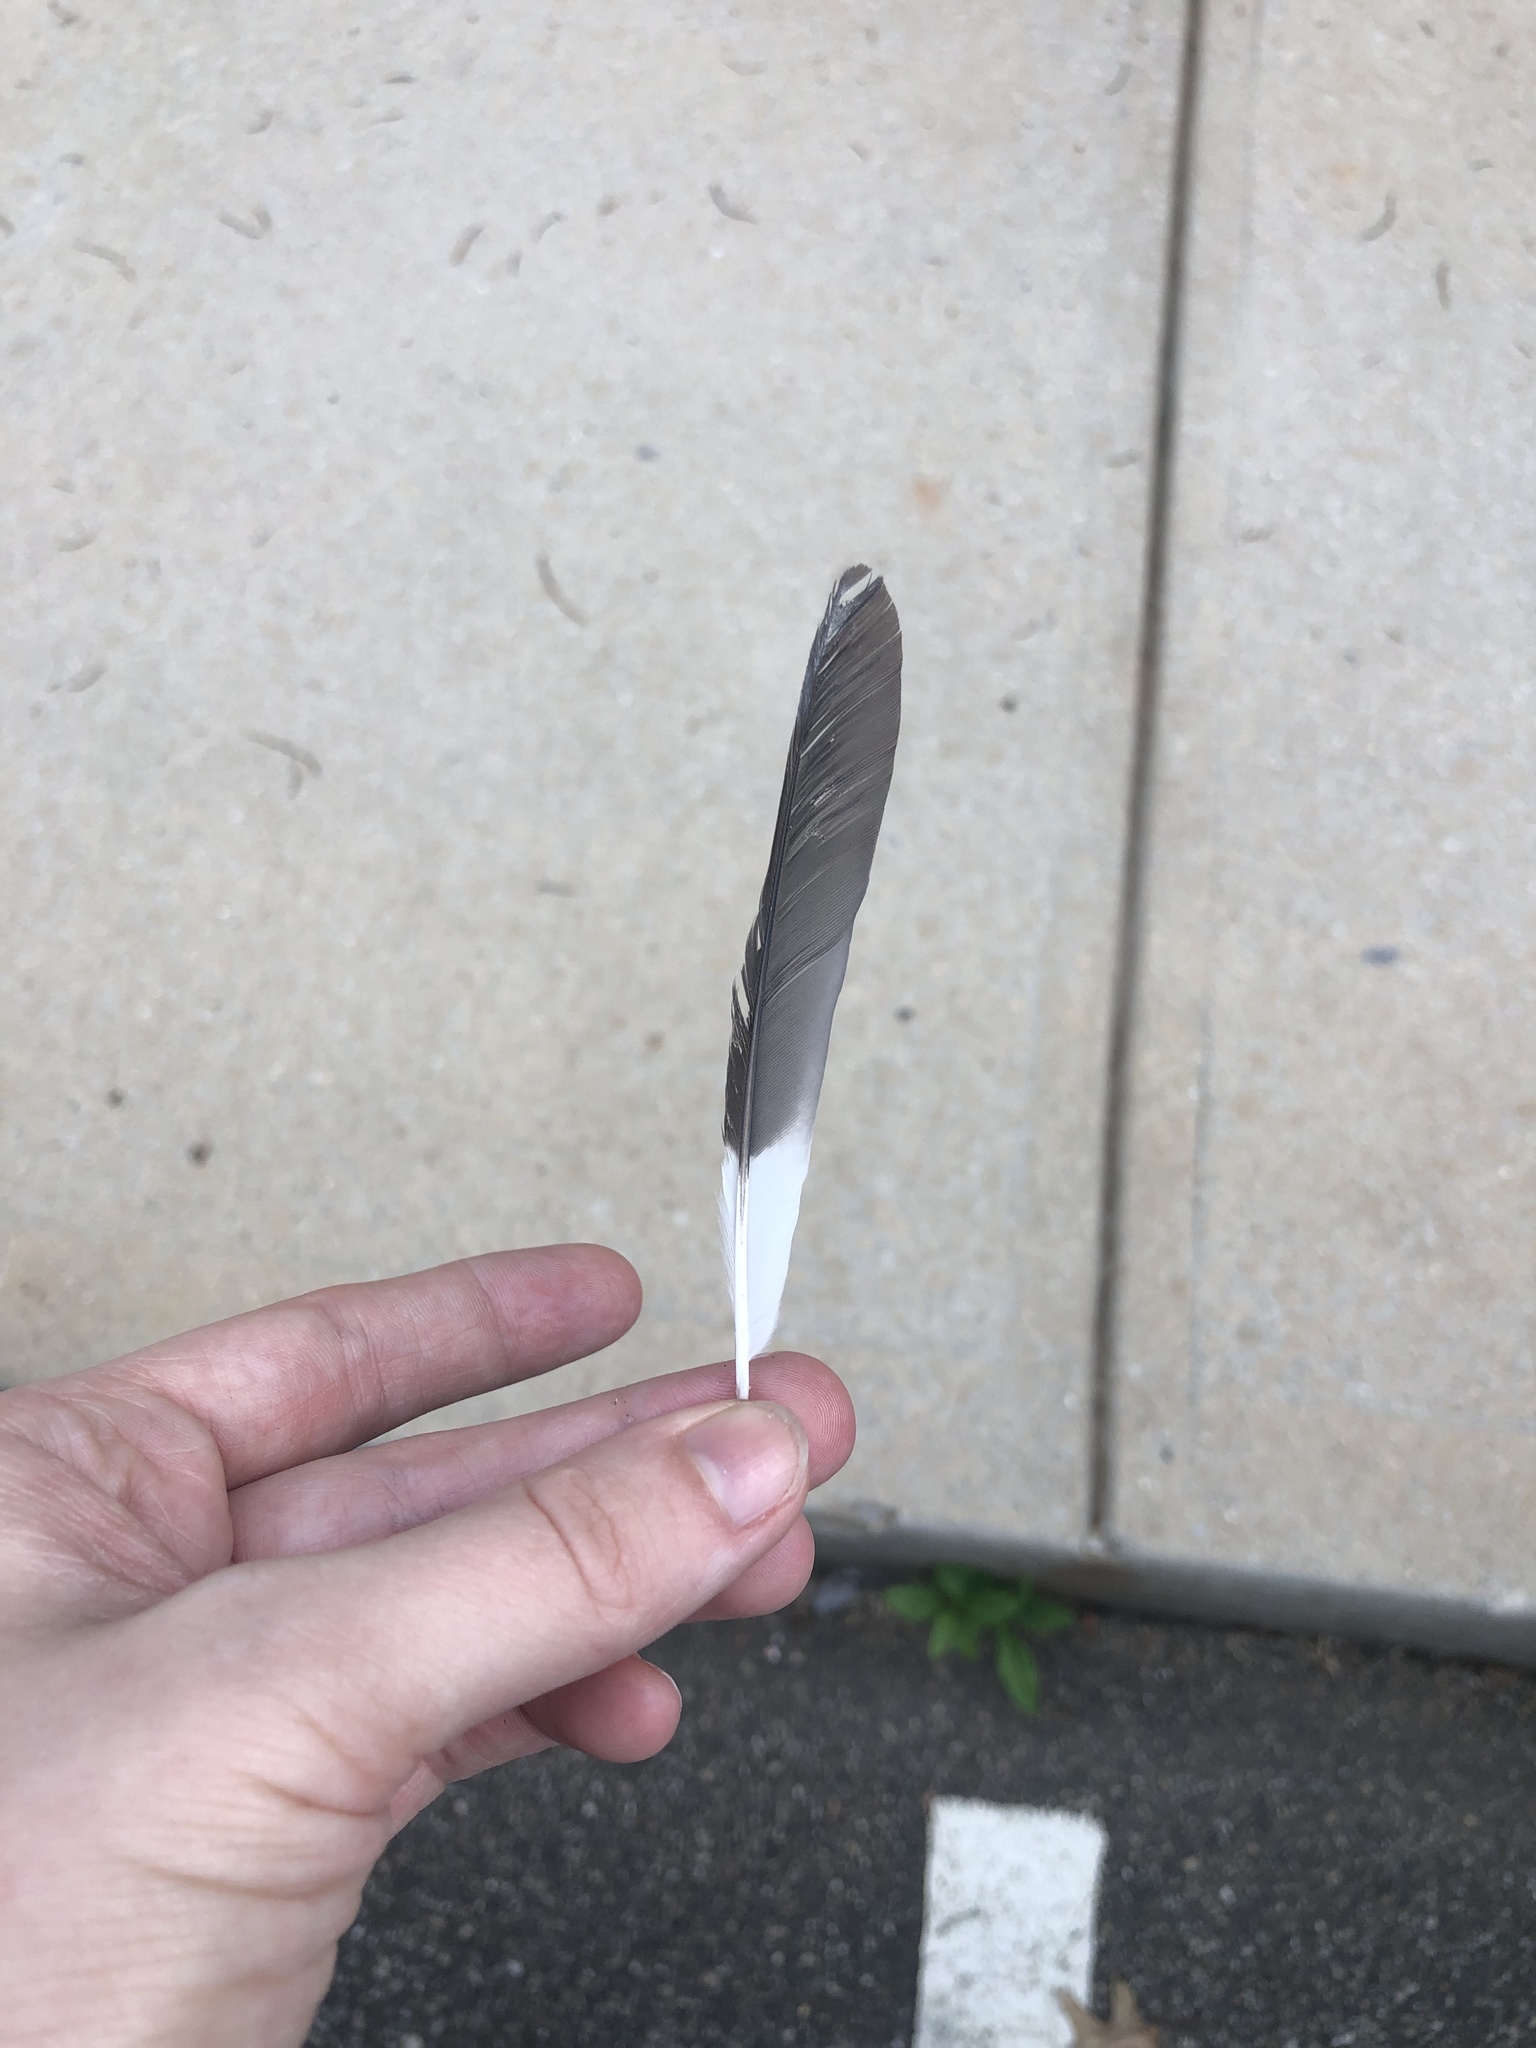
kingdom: Animalia
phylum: Chordata
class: Aves
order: Passeriformes
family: Mimidae
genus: Mimus
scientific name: Mimus polyglottos
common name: Northern mockingbird
